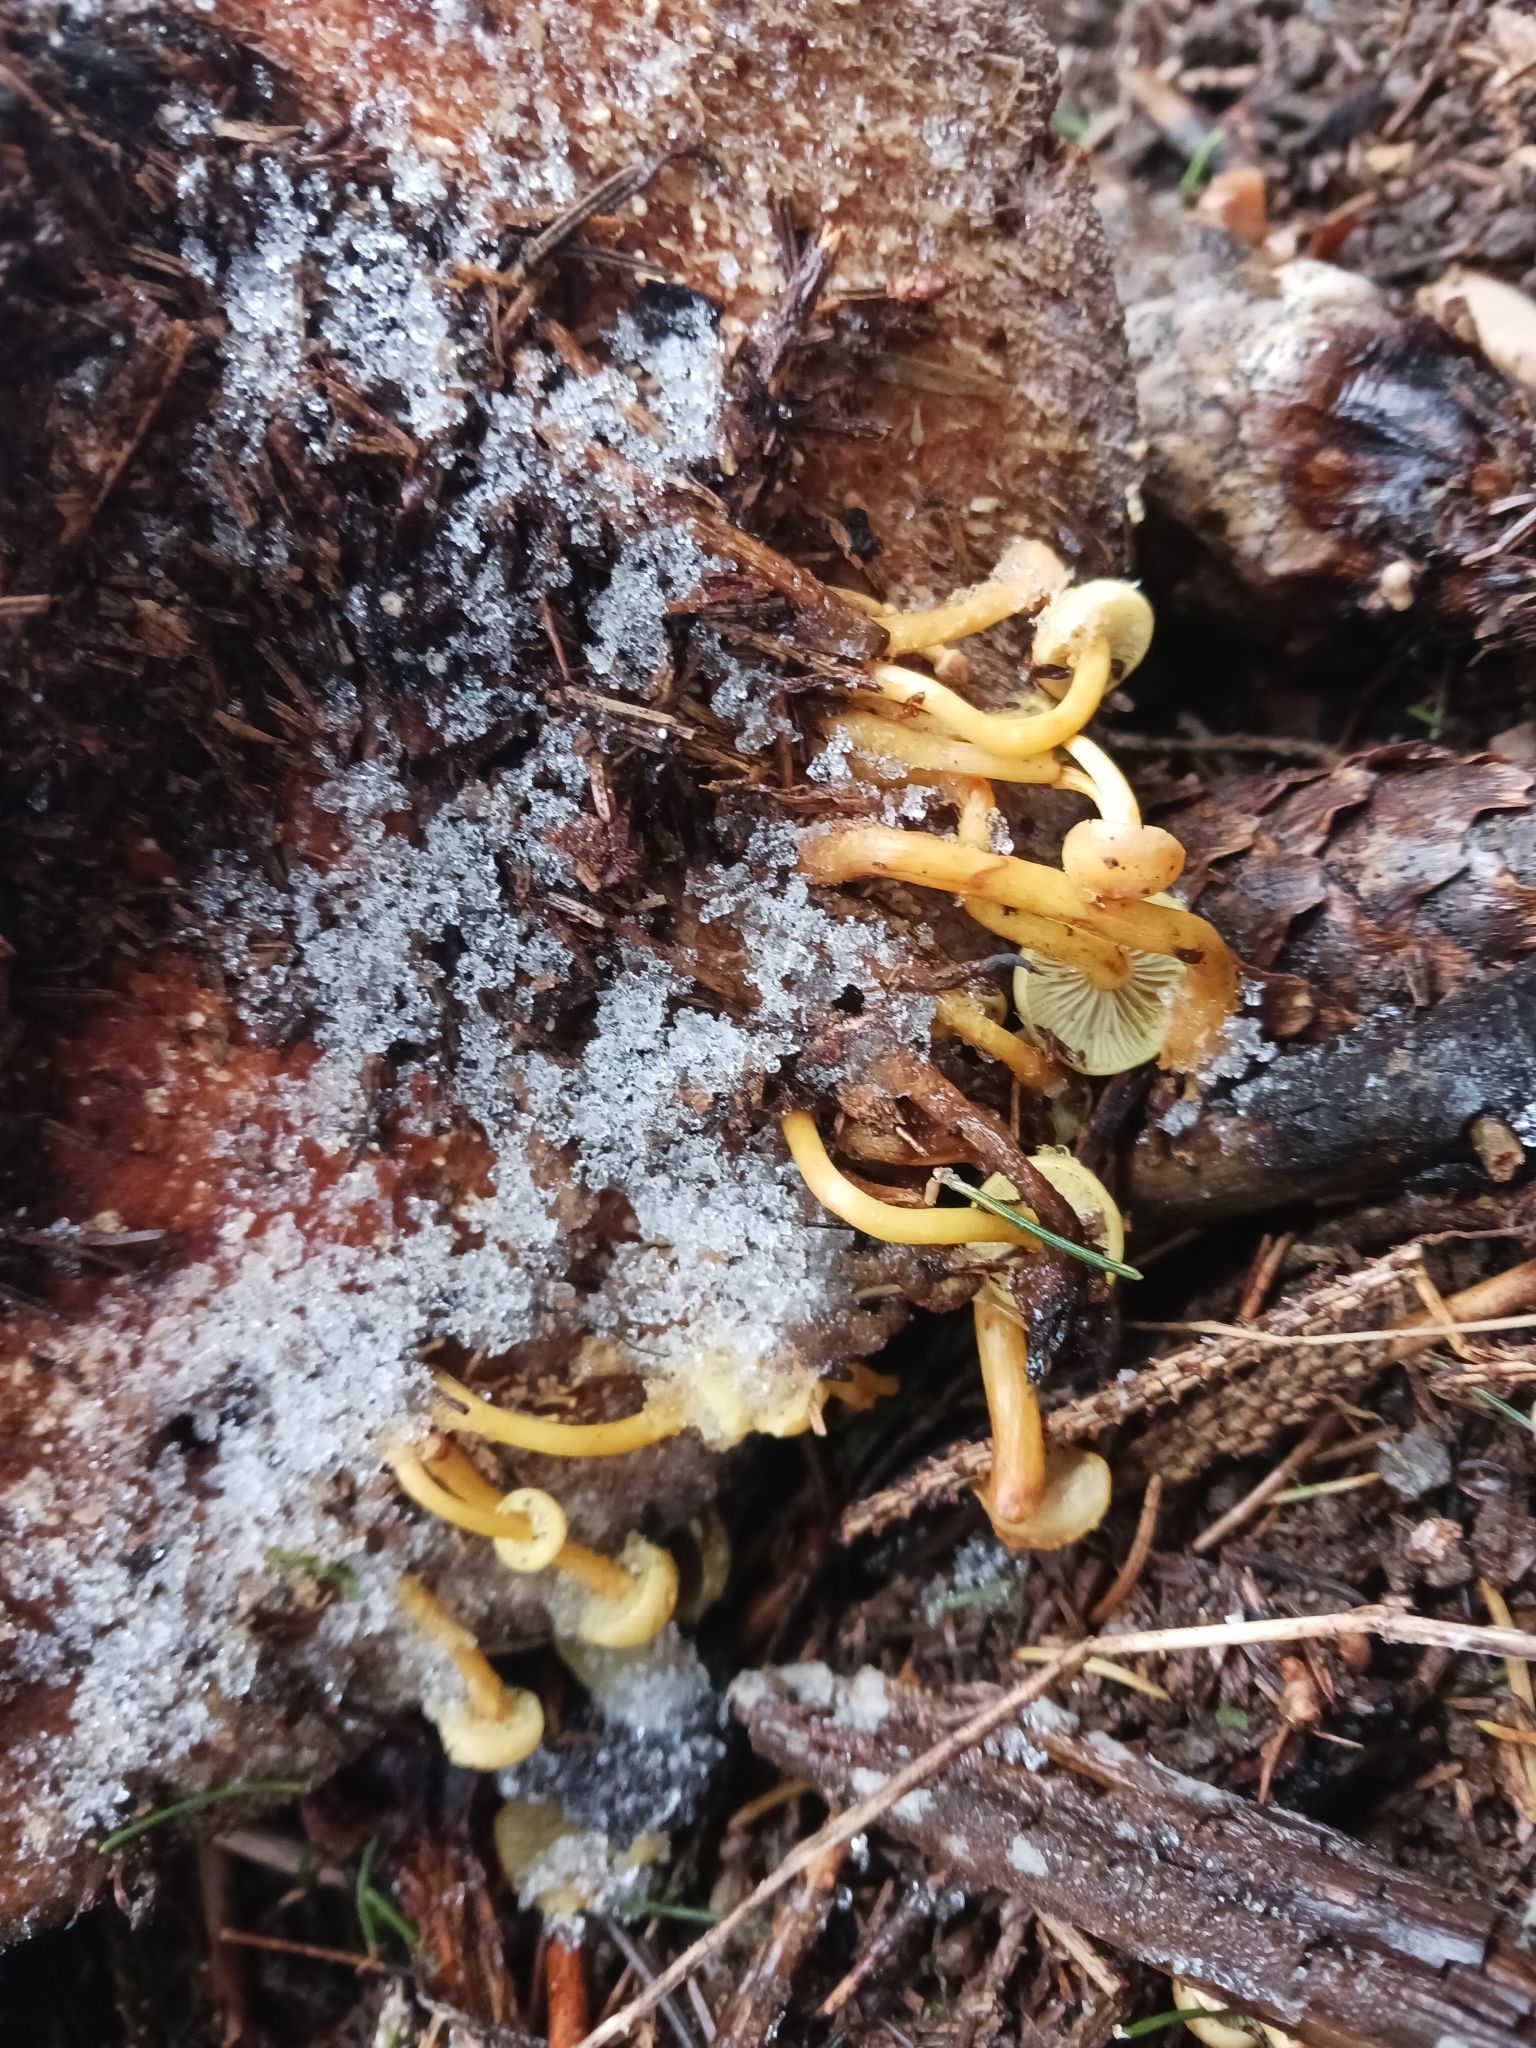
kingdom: Fungi
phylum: Basidiomycota
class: Agaricomycetes
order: Agaricales
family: Strophariaceae
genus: Hypholoma
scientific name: Hypholoma fasciculare
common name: Sulphur tuft
